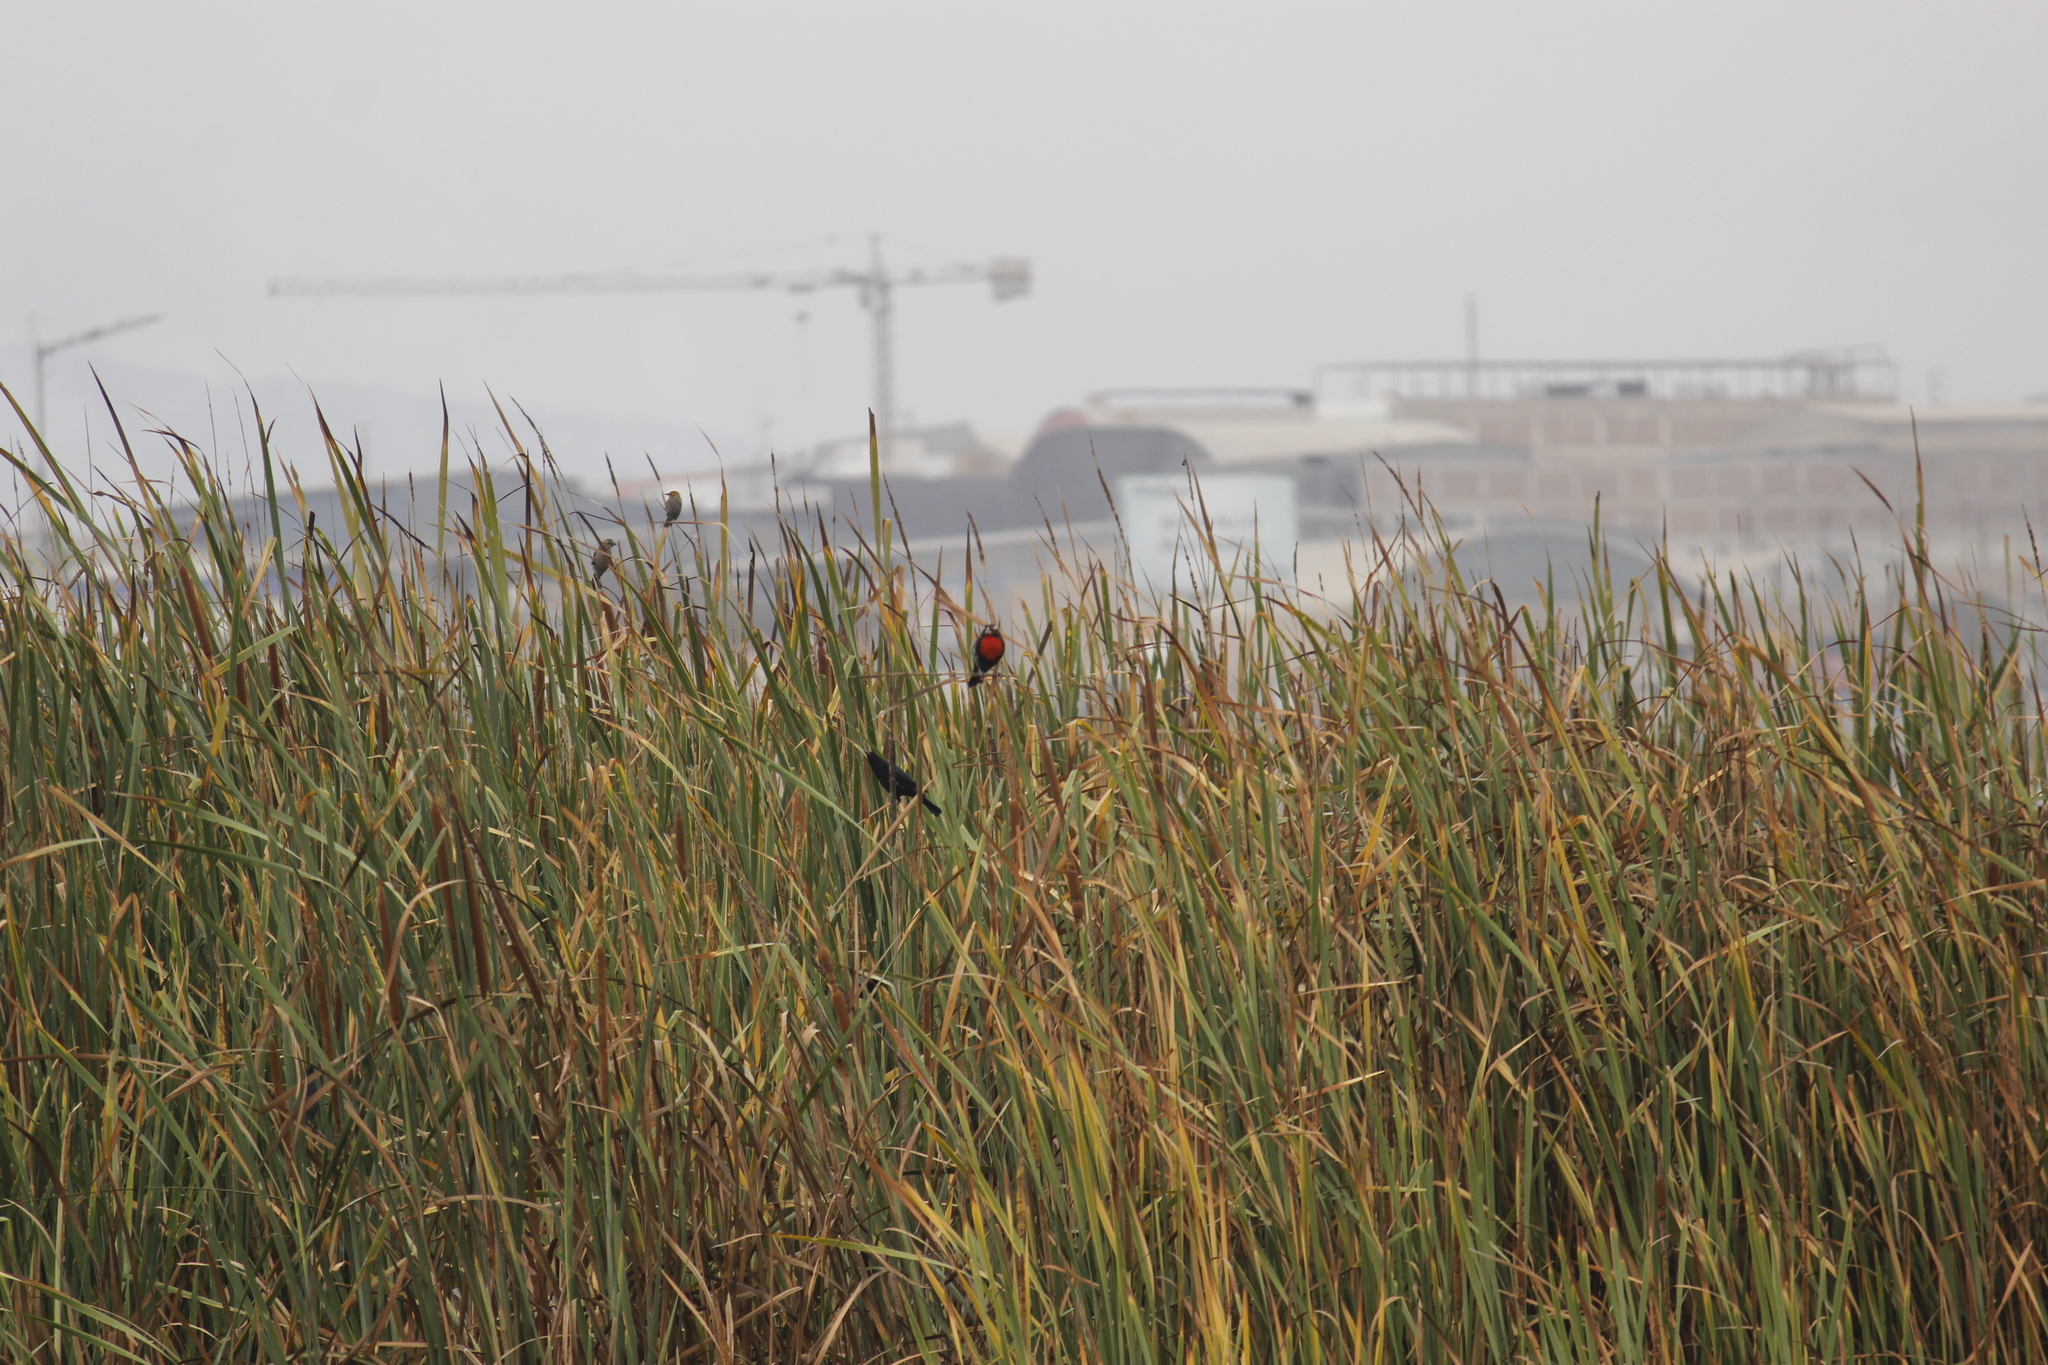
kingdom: Animalia
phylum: Chordata
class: Aves
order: Passeriformes
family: Icteridae
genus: Chrysomus
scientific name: Chrysomus icterocephalus
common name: Yellow-hooded blackbird
